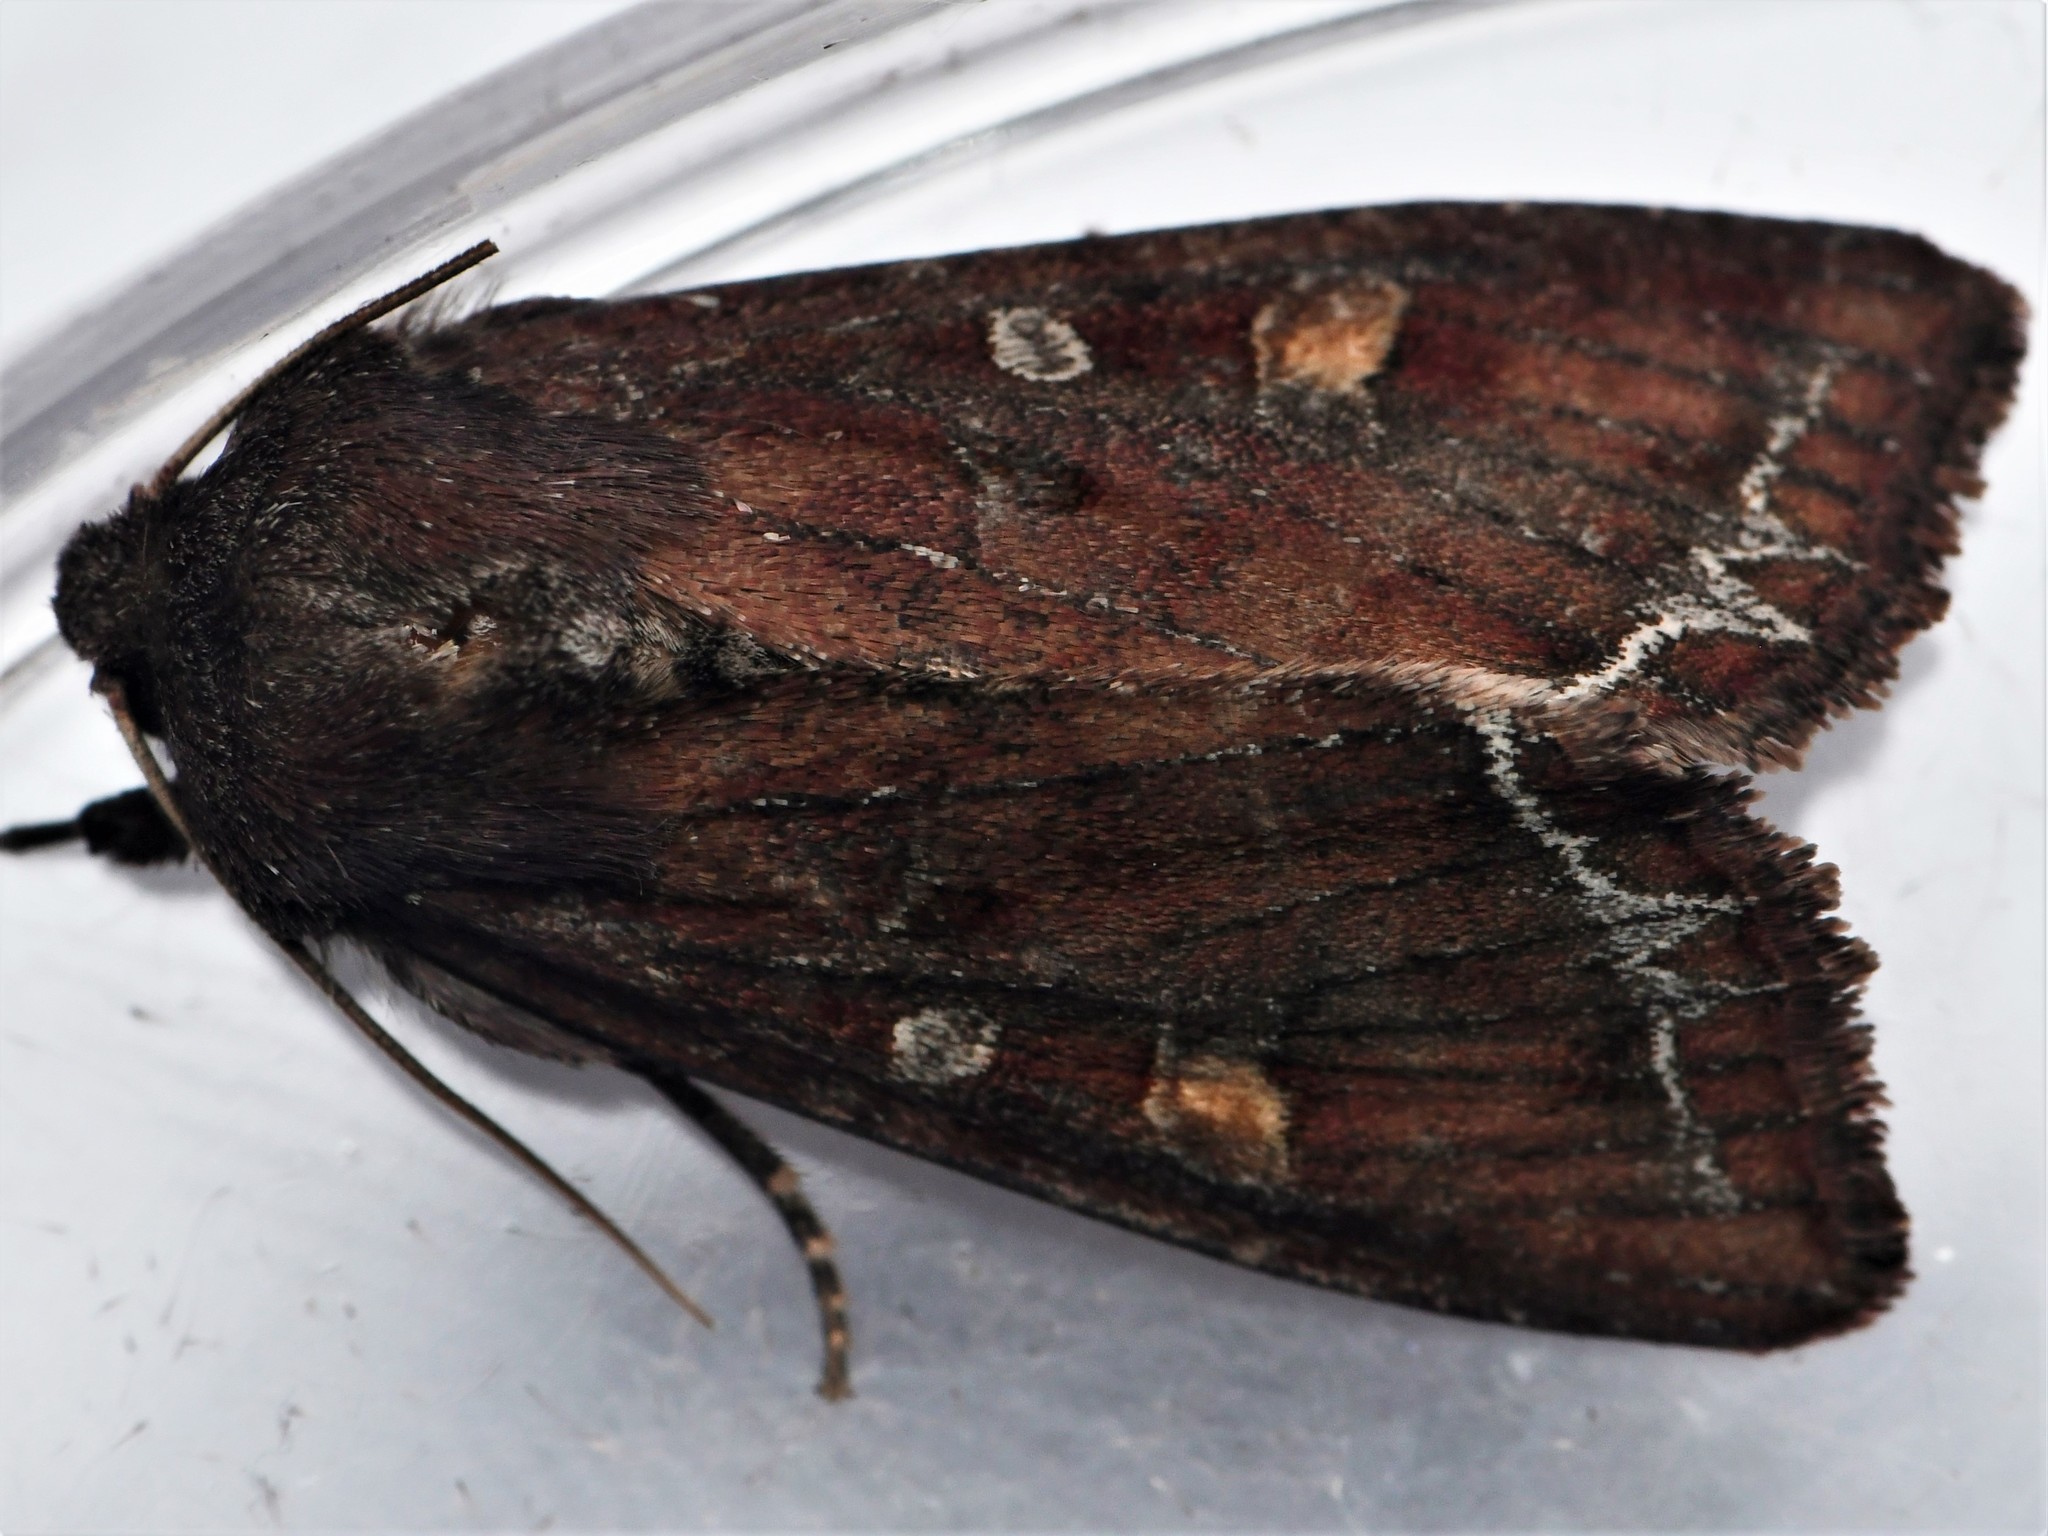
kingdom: Animalia
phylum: Arthropoda
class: Insecta
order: Lepidoptera
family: Noctuidae
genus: Lacanobia
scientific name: Lacanobia oleracea
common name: Bright-line brown-eye
